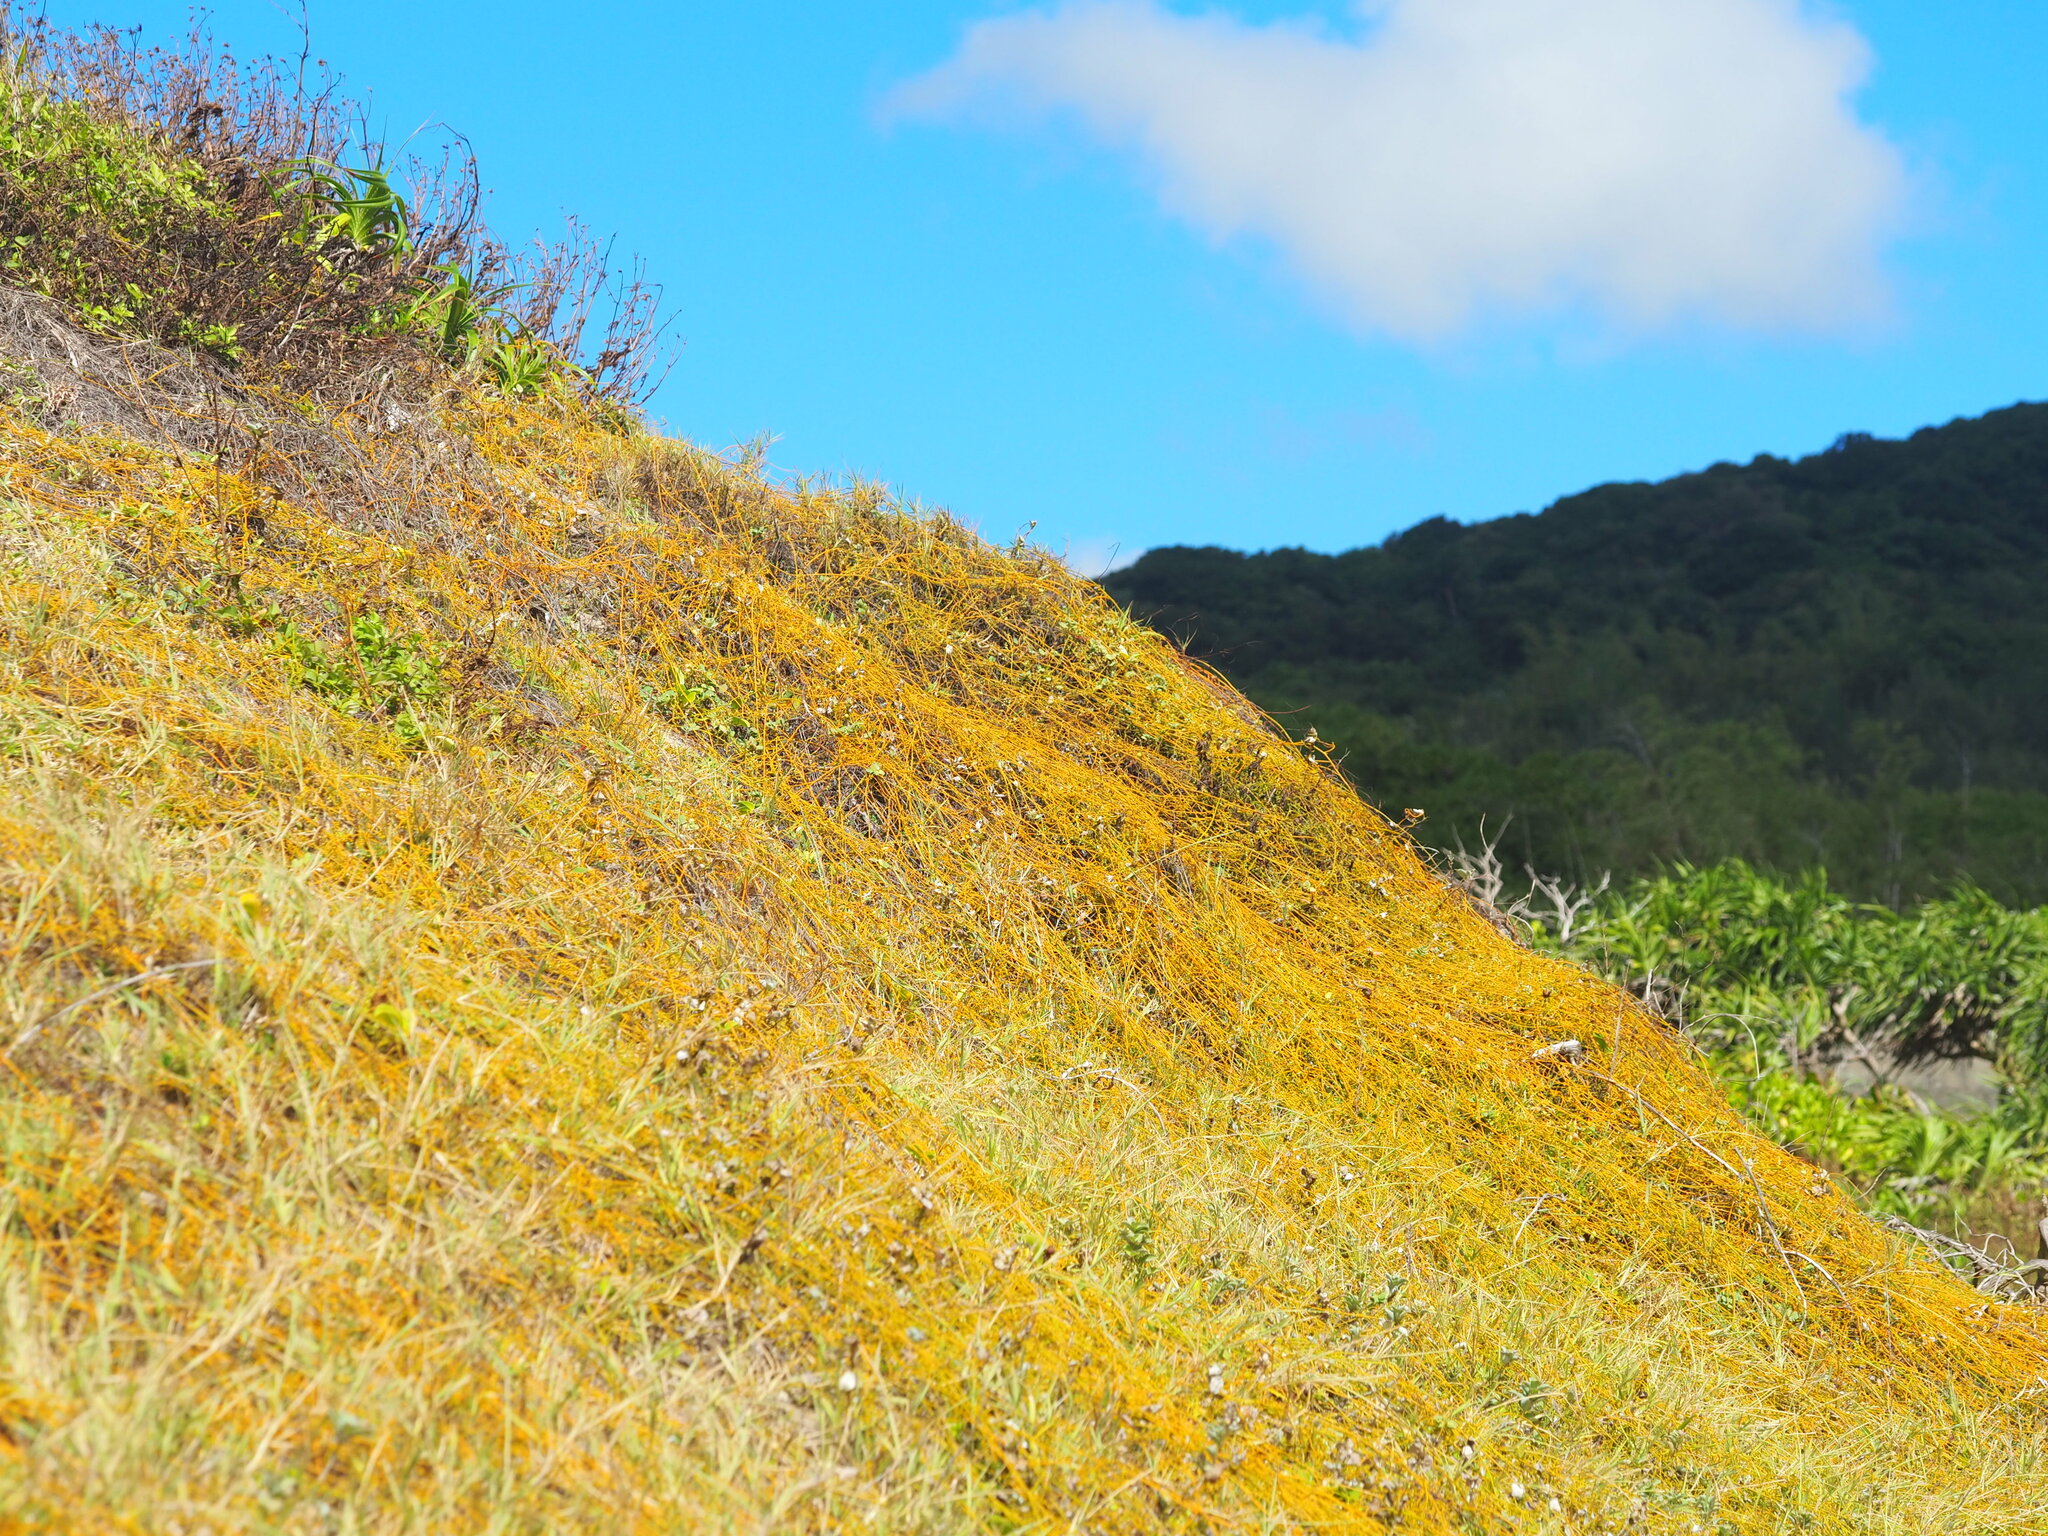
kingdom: Plantae
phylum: Tracheophyta
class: Magnoliopsida
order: Laurales
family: Lauraceae
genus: Cassytha
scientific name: Cassytha filiformis
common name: Dodder-laurel
